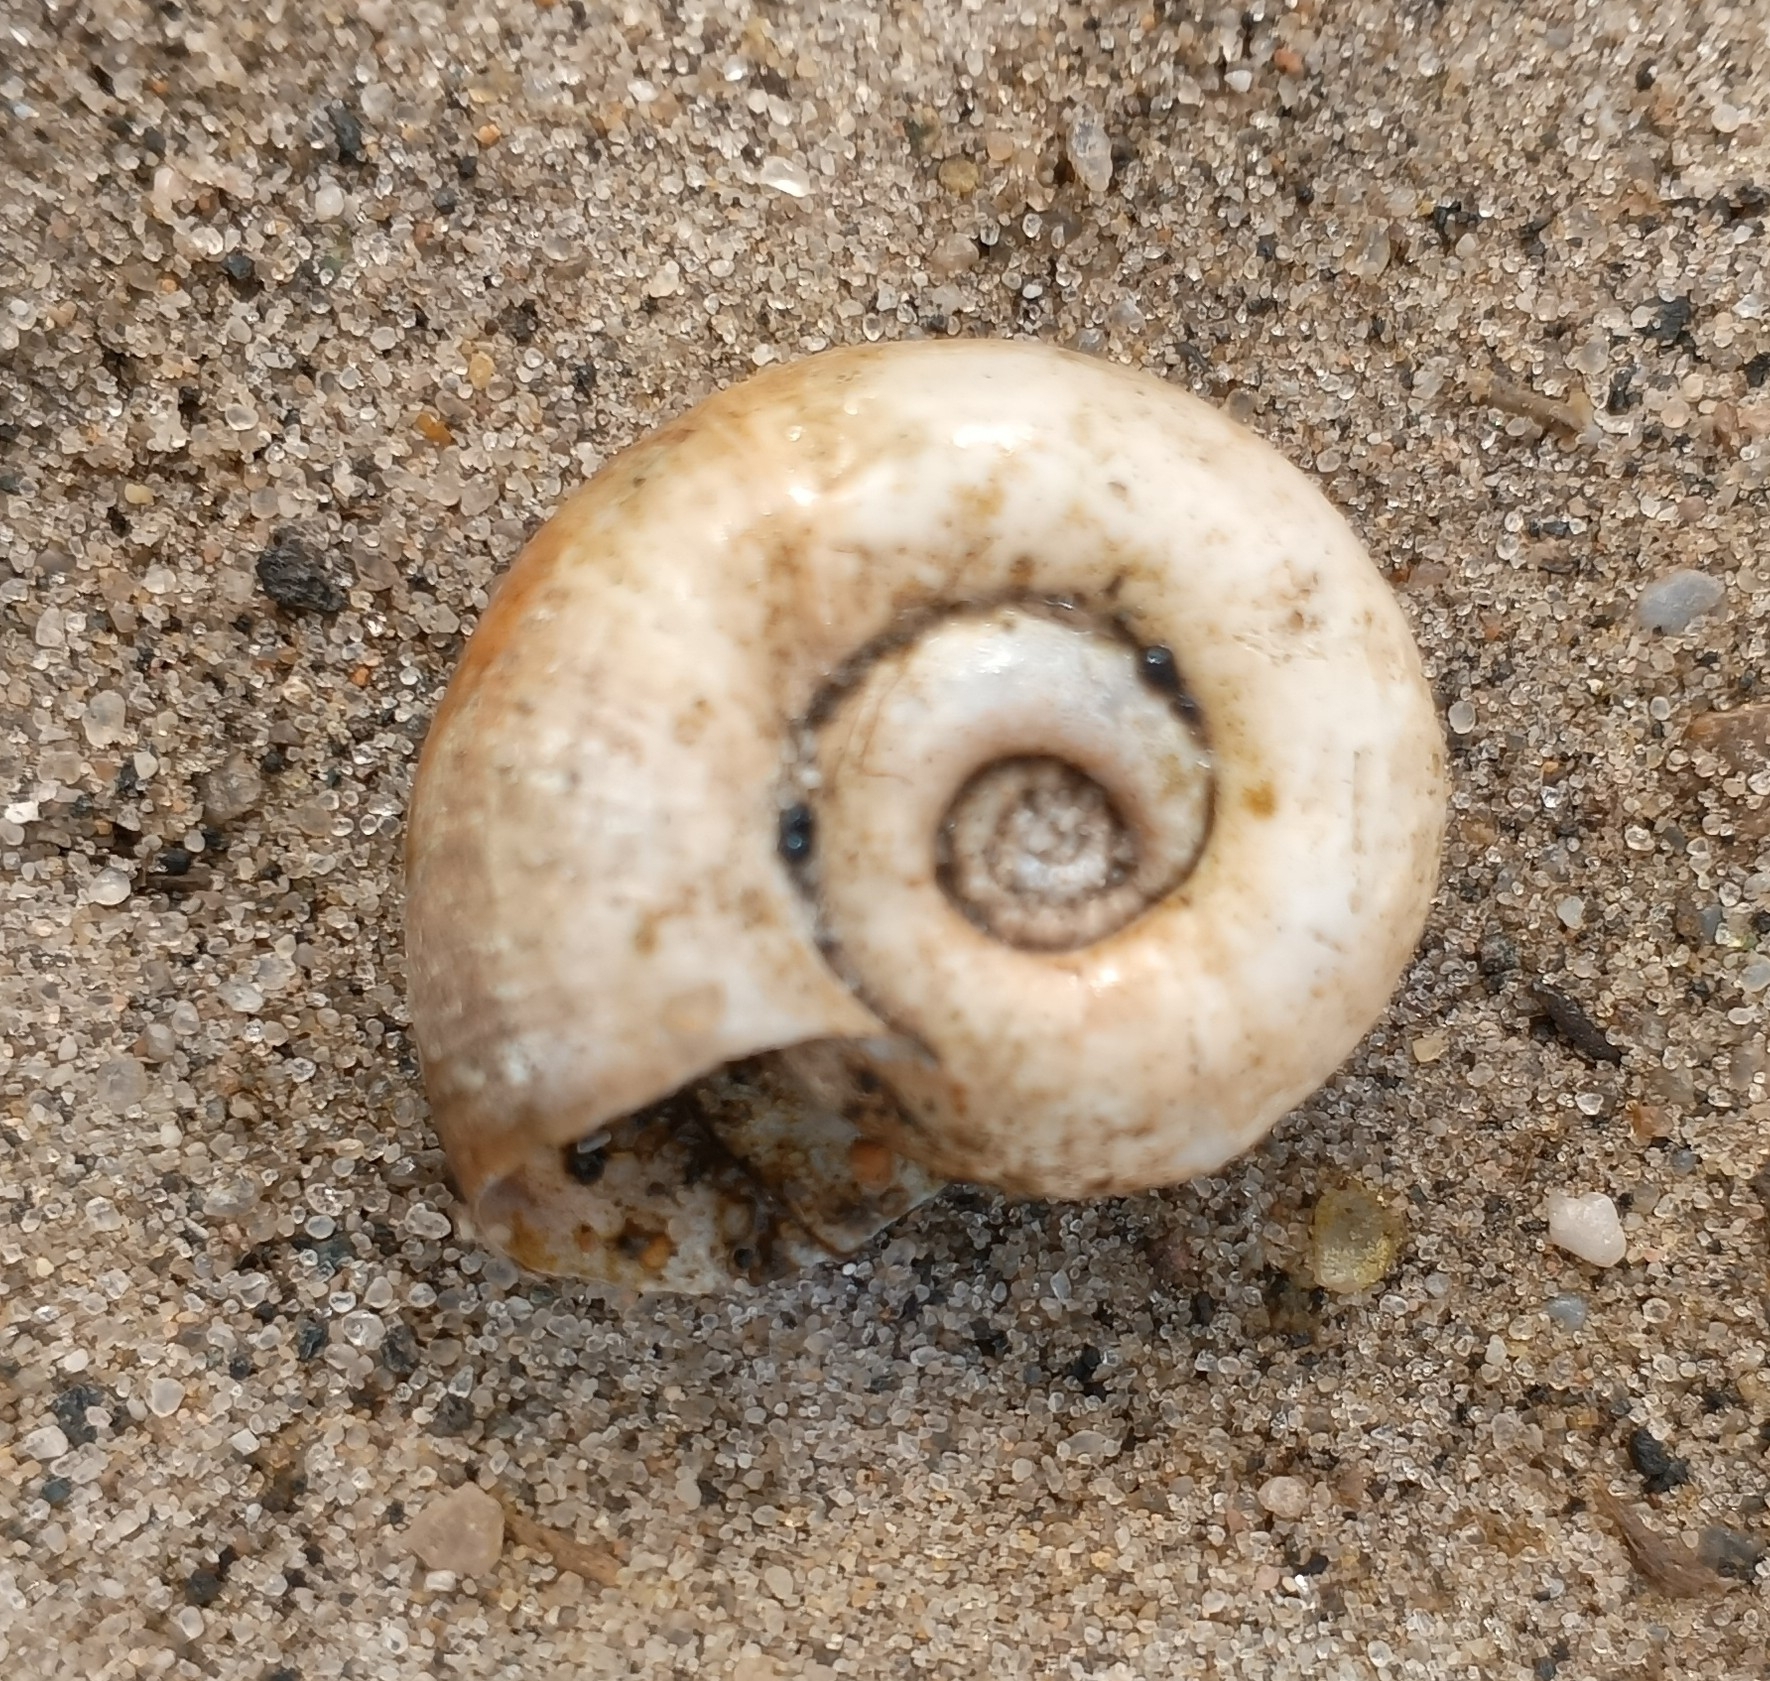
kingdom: Animalia
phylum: Mollusca
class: Gastropoda
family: Planorbidae
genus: Planorbarius
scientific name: Planorbarius corneus
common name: Great ramshorn
